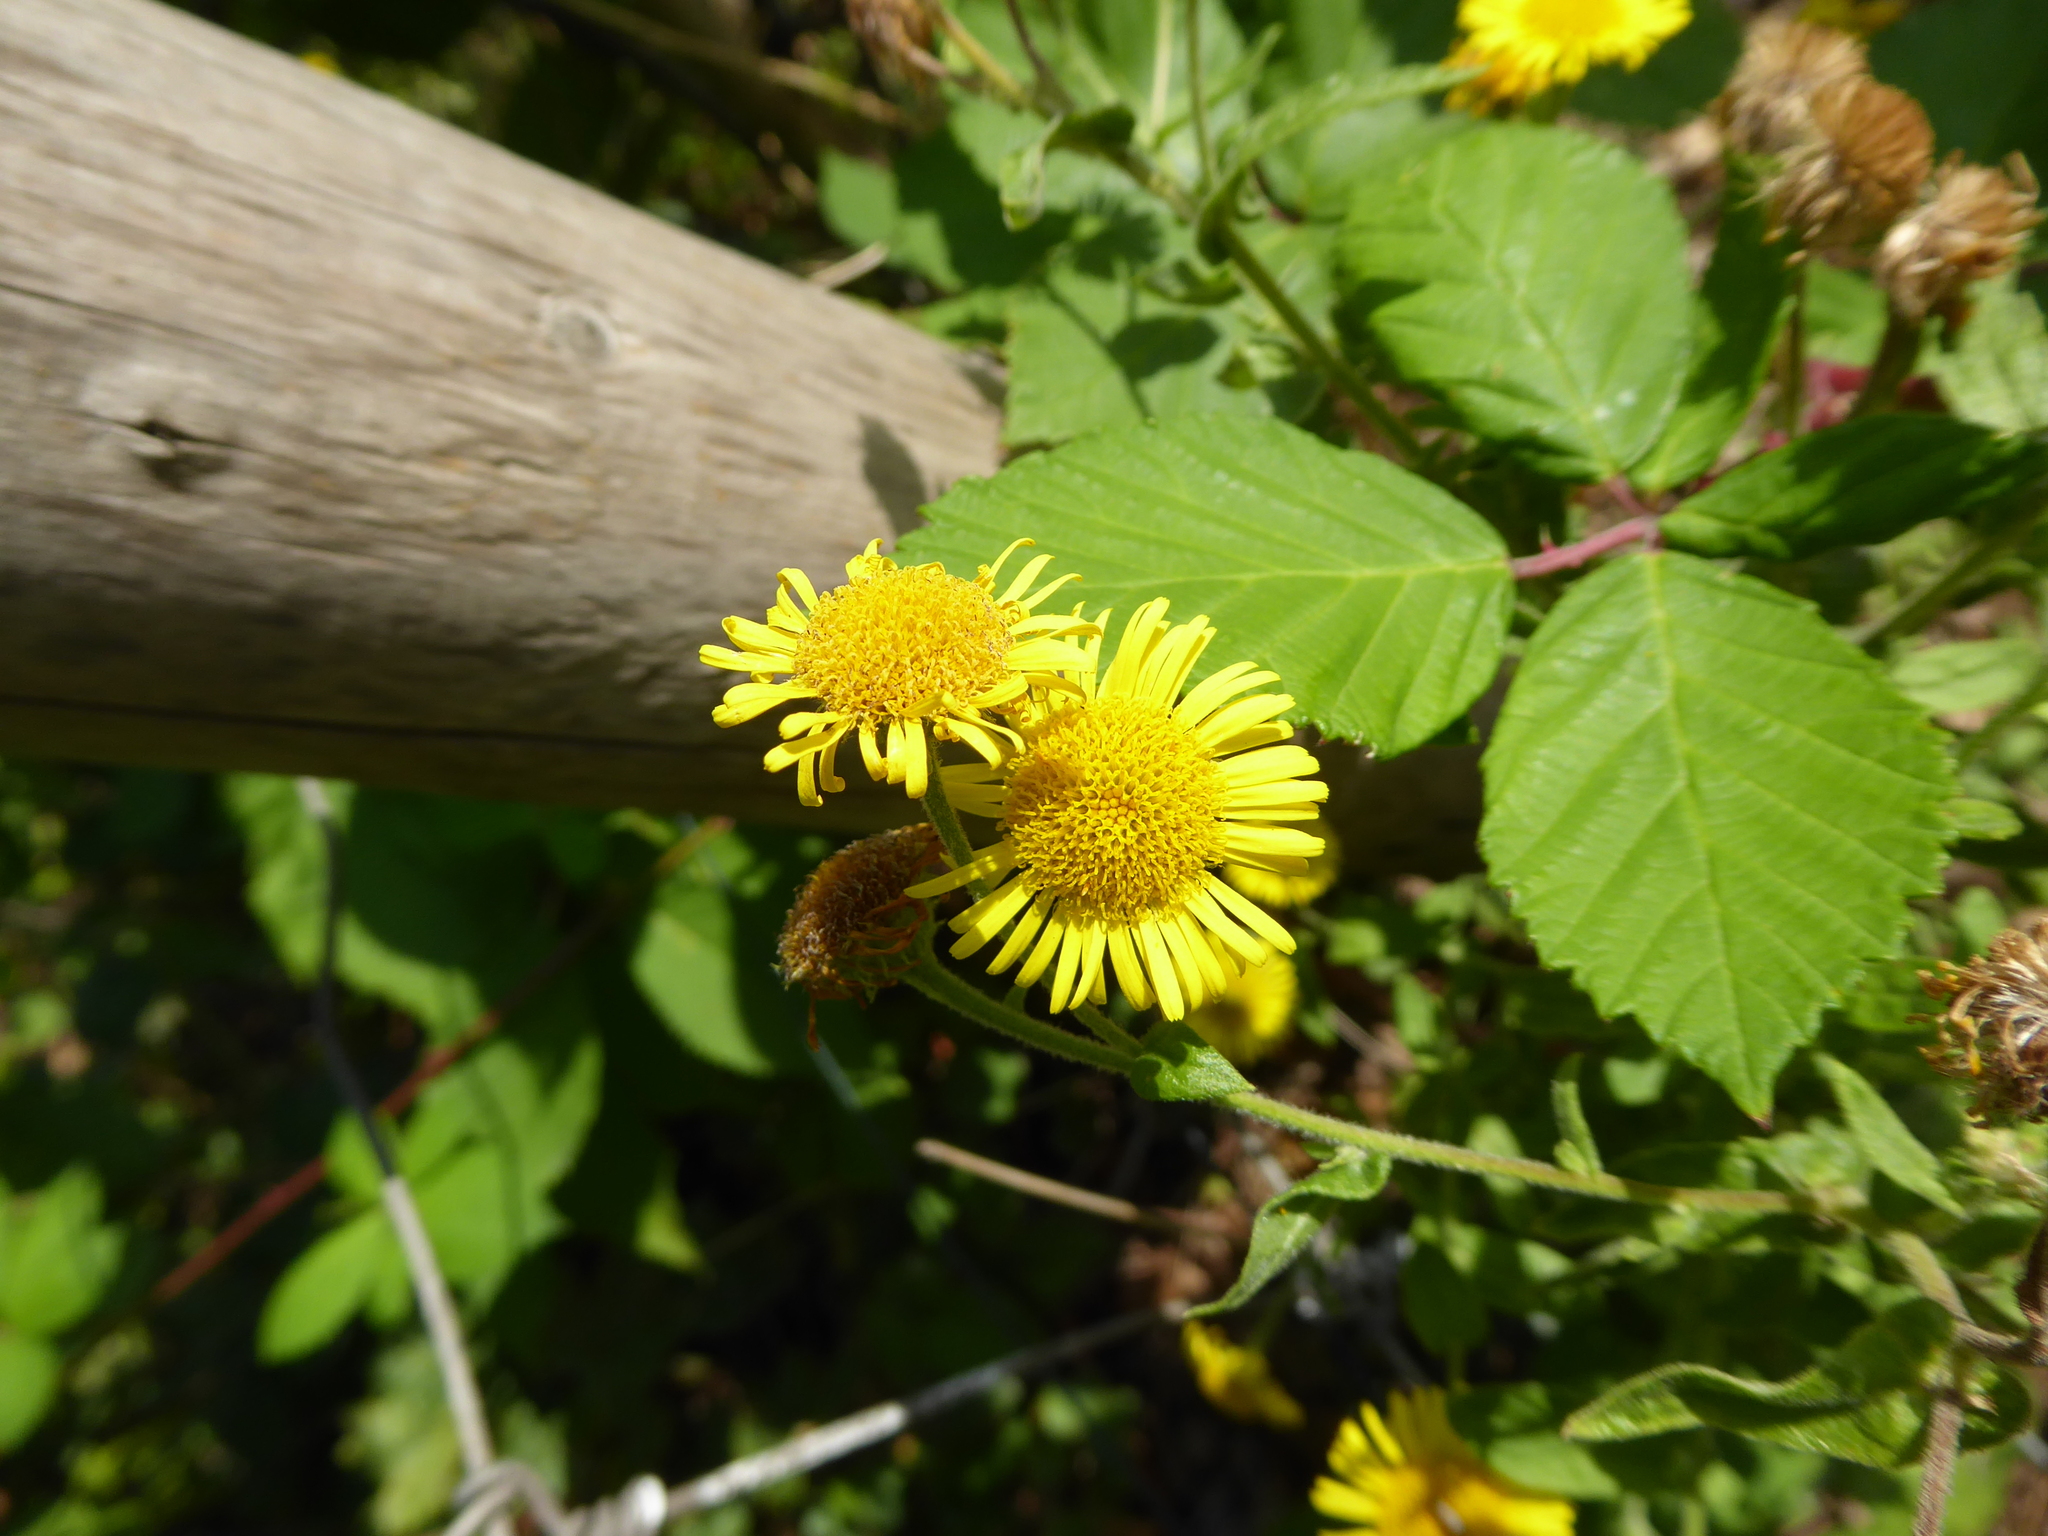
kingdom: Plantae
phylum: Tracheophyta
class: Magnoliopsida
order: Asterales
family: Asteraceae
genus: Pulicaria
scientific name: Pulicaria dysenterica
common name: Common fleabane
